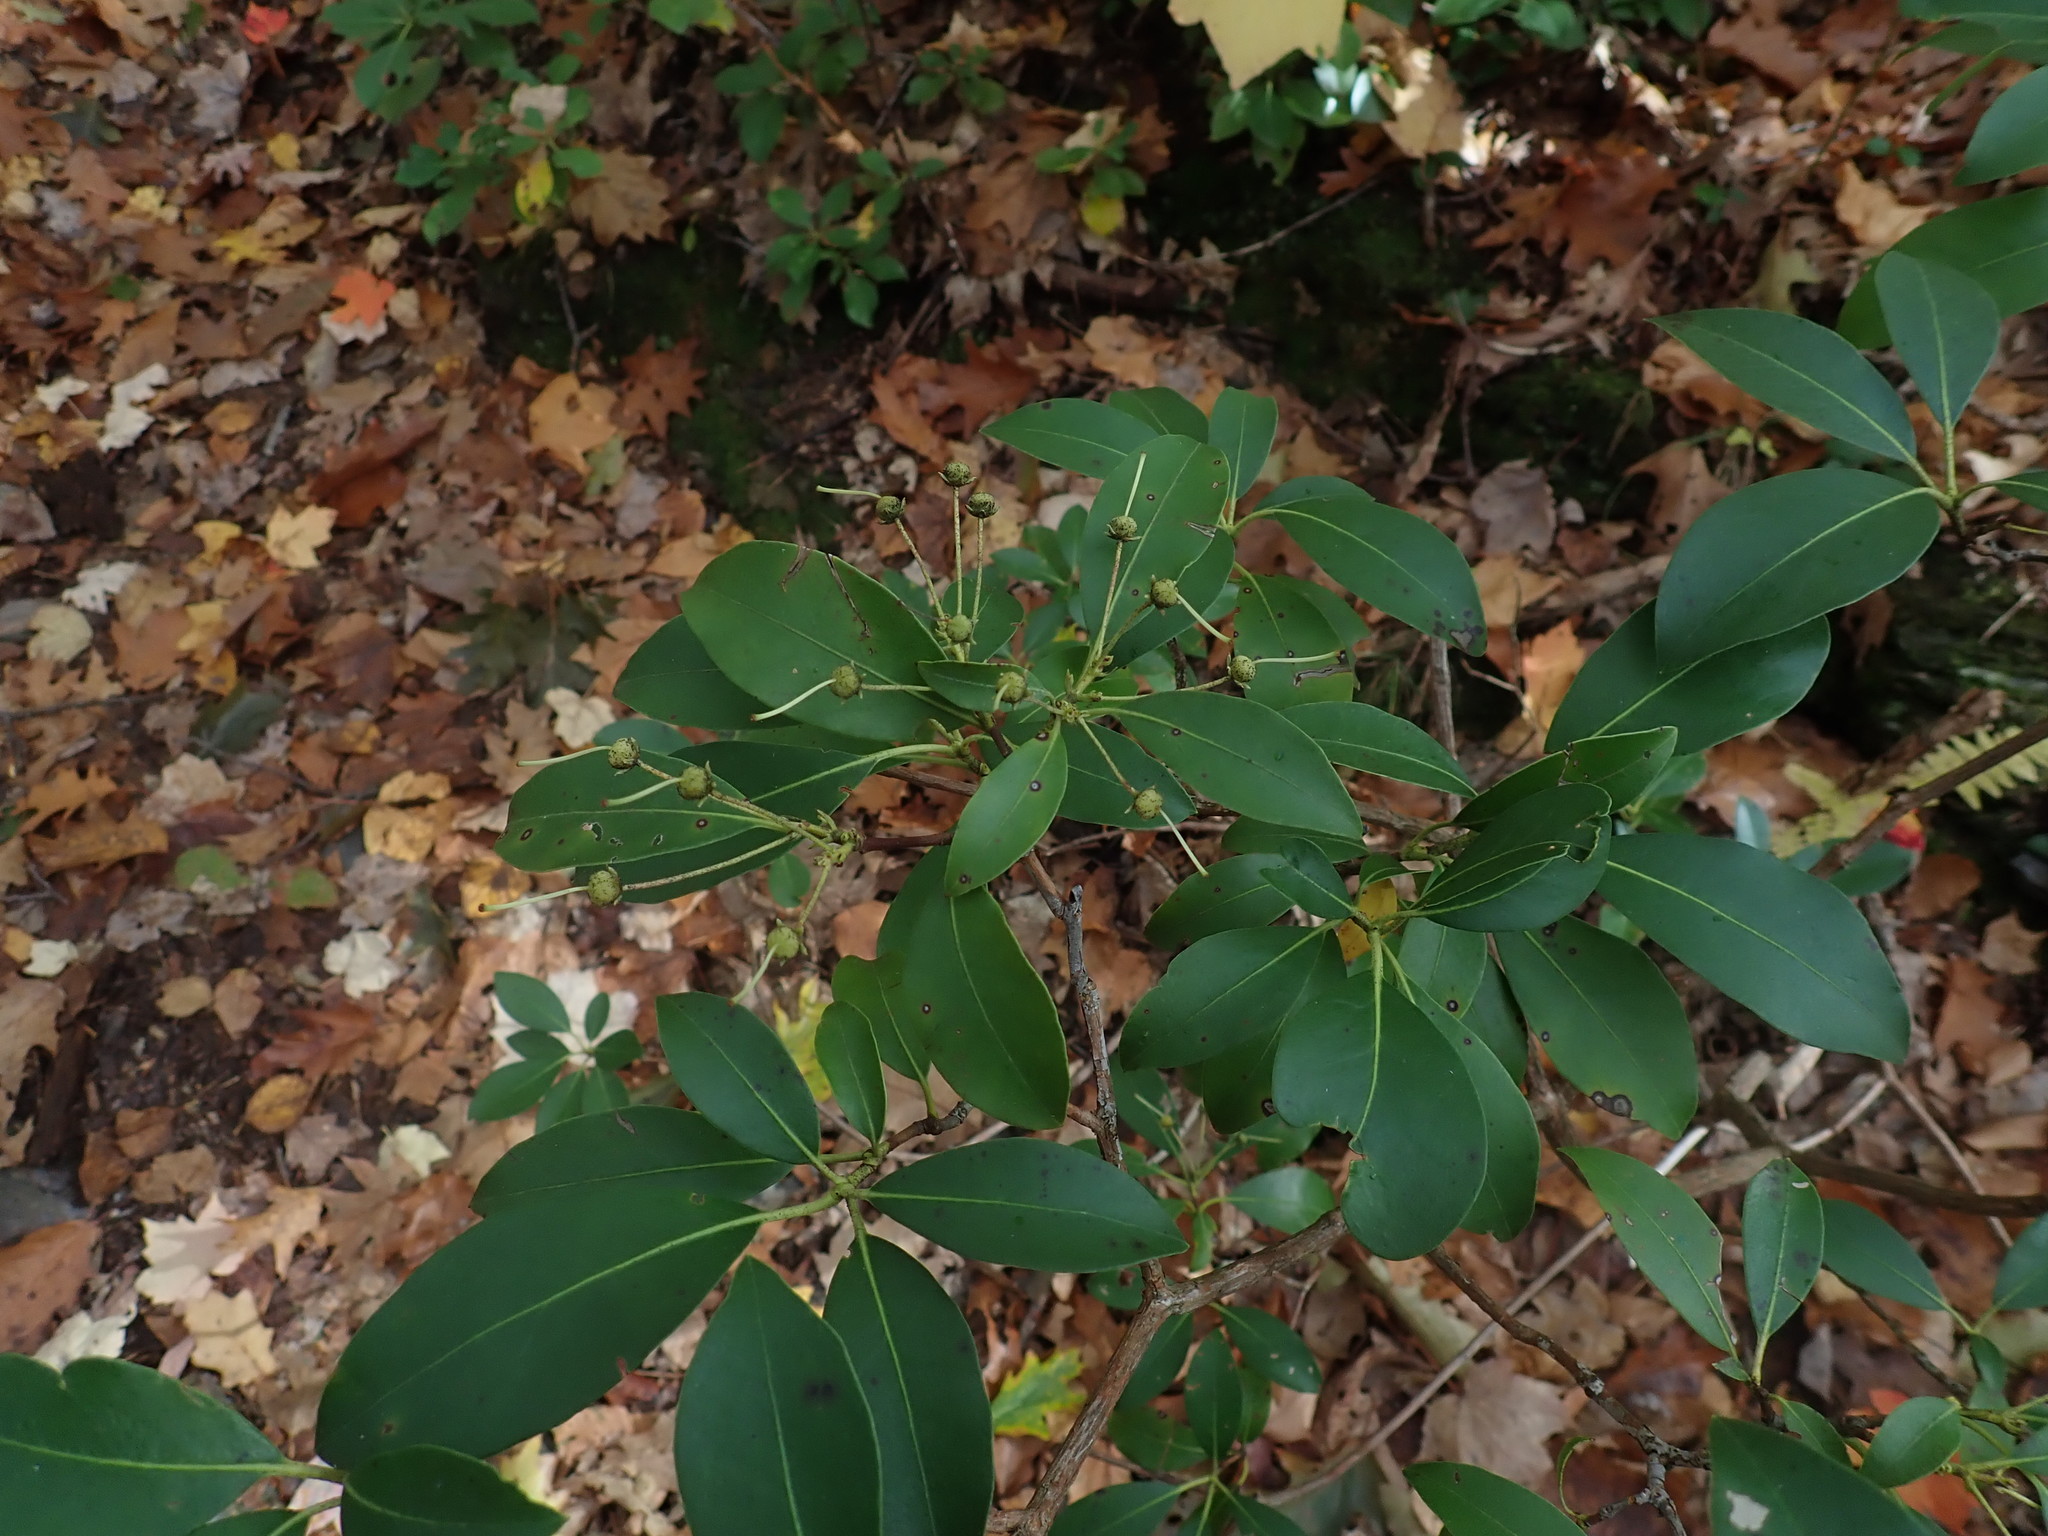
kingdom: Plantae
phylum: Tracheophyta
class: Magnoliopsida
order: Ericales
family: Ericaceae
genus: Kalmia
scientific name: Kalmia latifolia
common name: Mountain-laurel
